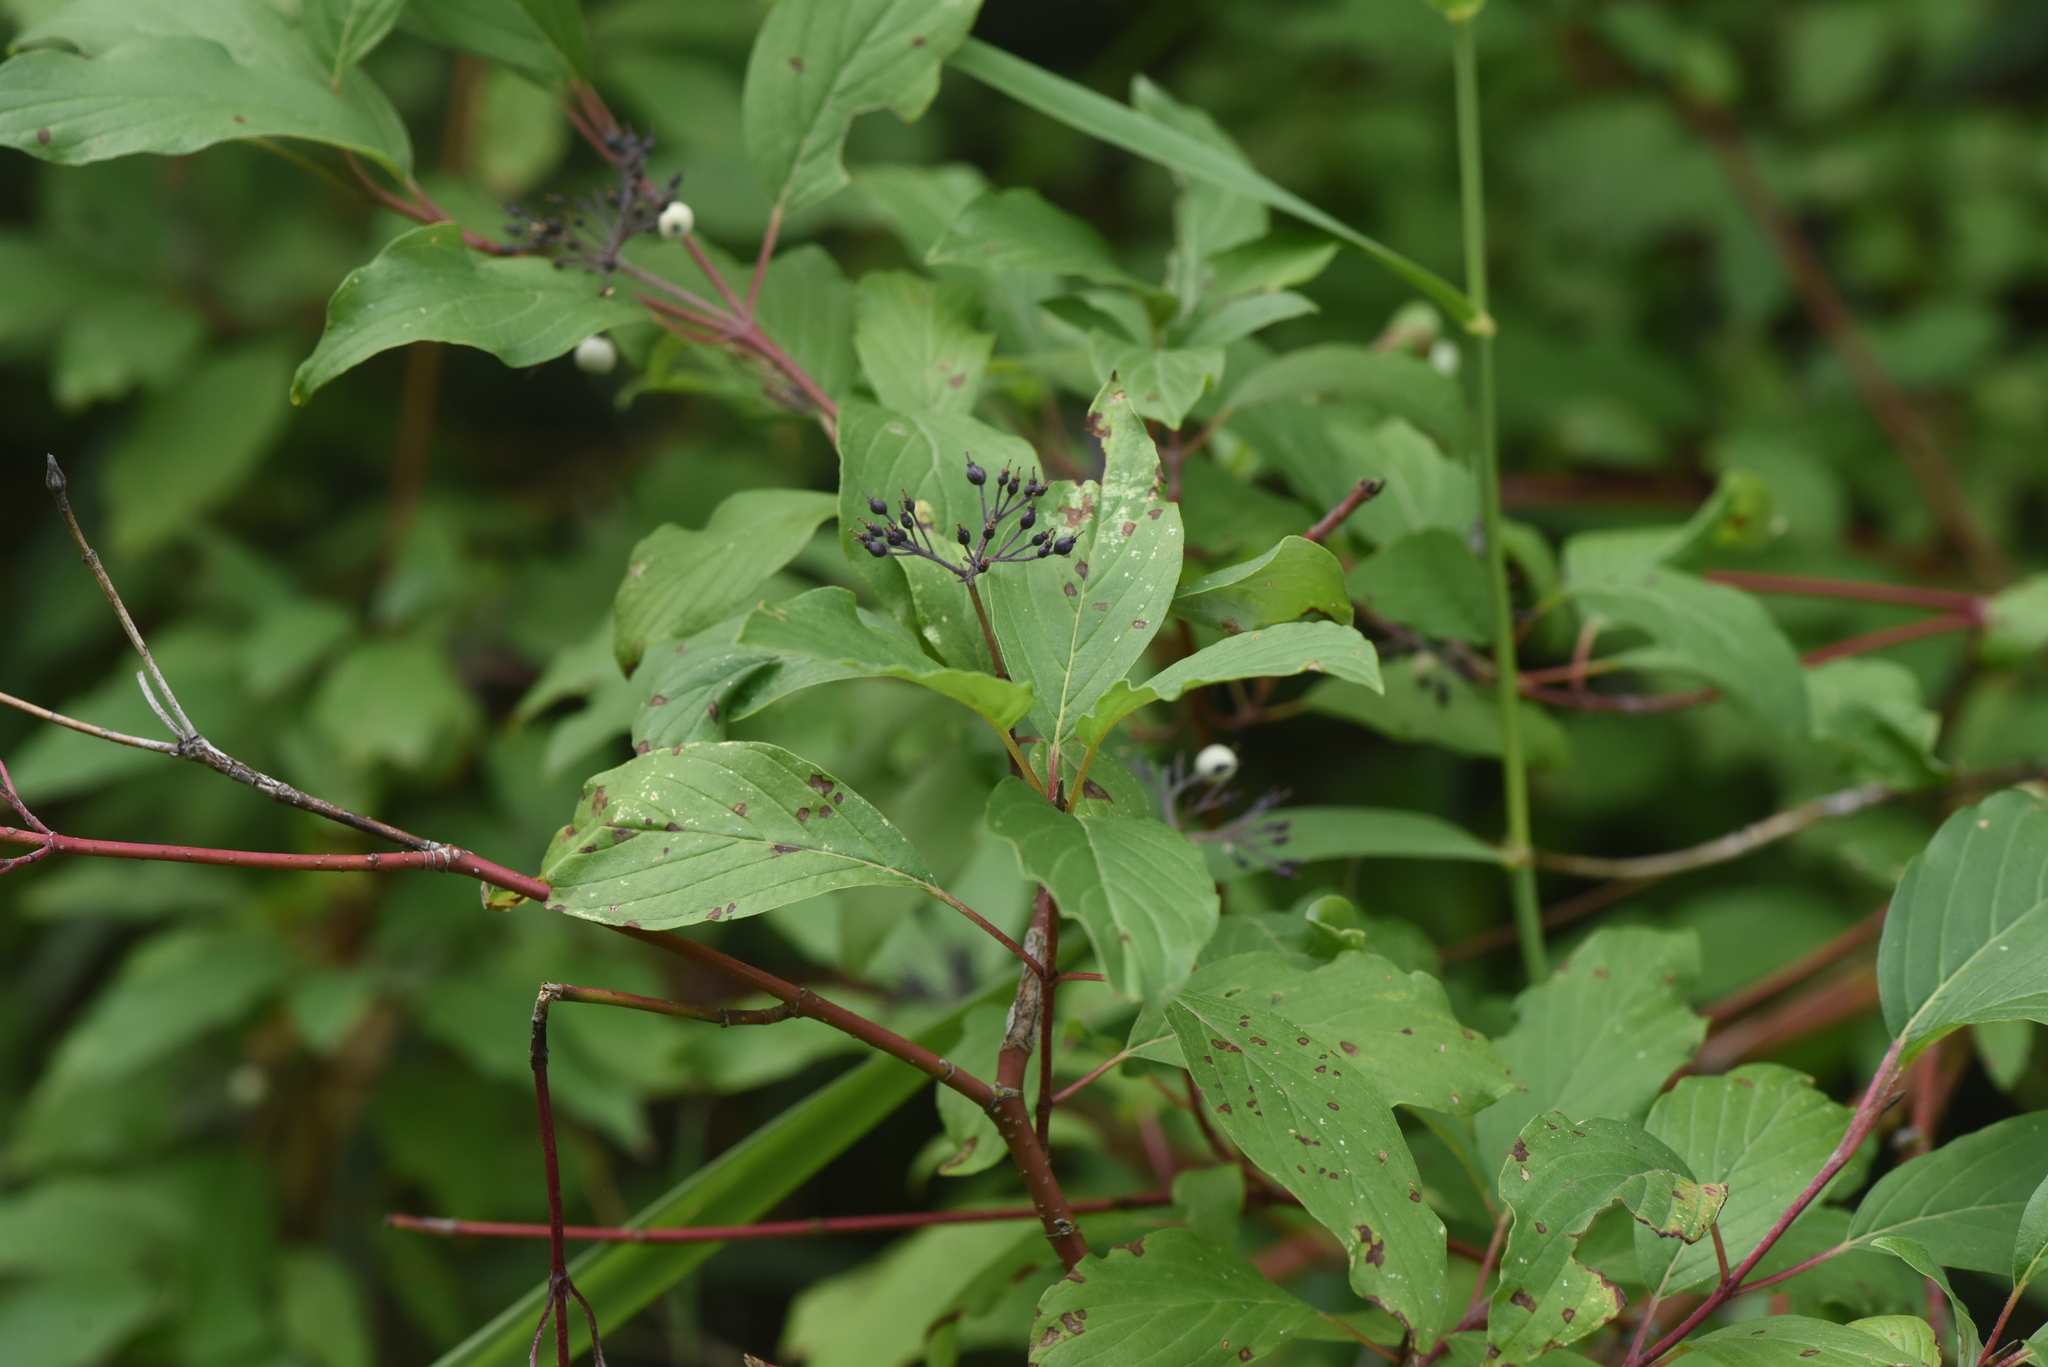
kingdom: Plantae
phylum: Tracheophyta
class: Magnoliopsida
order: Cornales
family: Cornaceae
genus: Cornus
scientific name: Cornus sericea
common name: Red-osier dogwood
